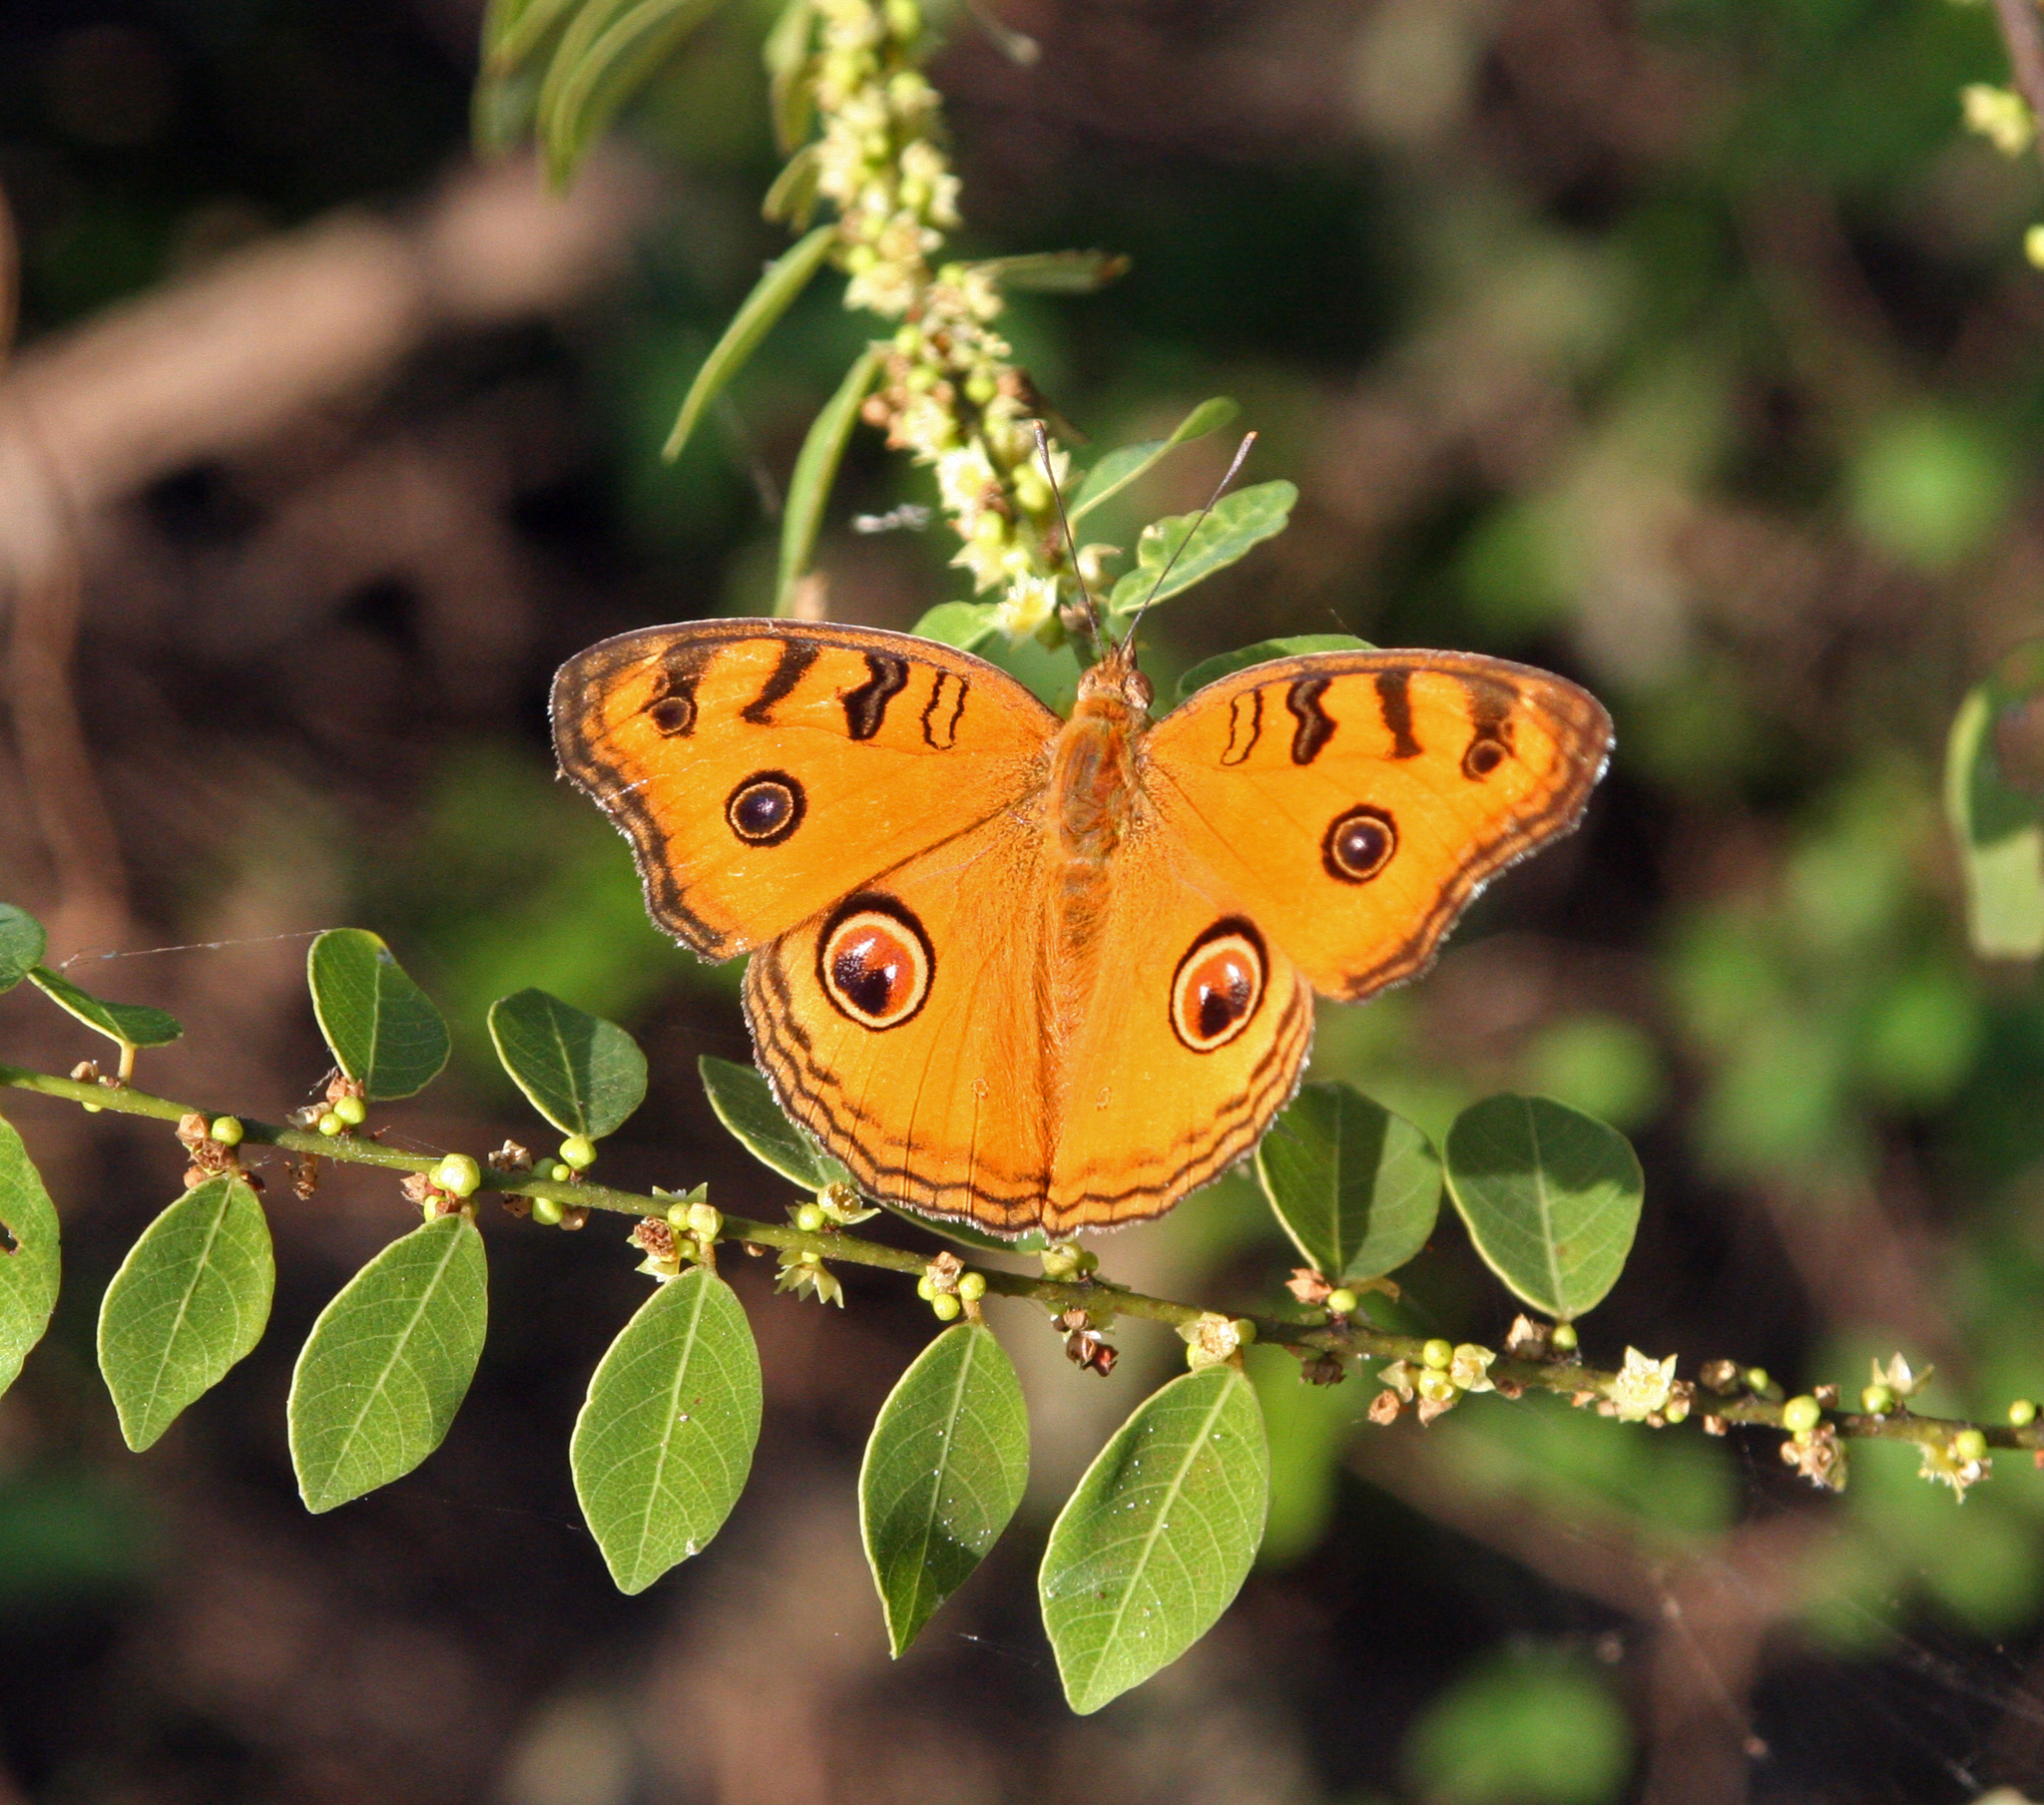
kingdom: Animalia
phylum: Arthropoda
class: Insecta
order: Lepidoptera
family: Nymphalidae
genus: Junonia
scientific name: Junonia almana
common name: Peacock pansy
